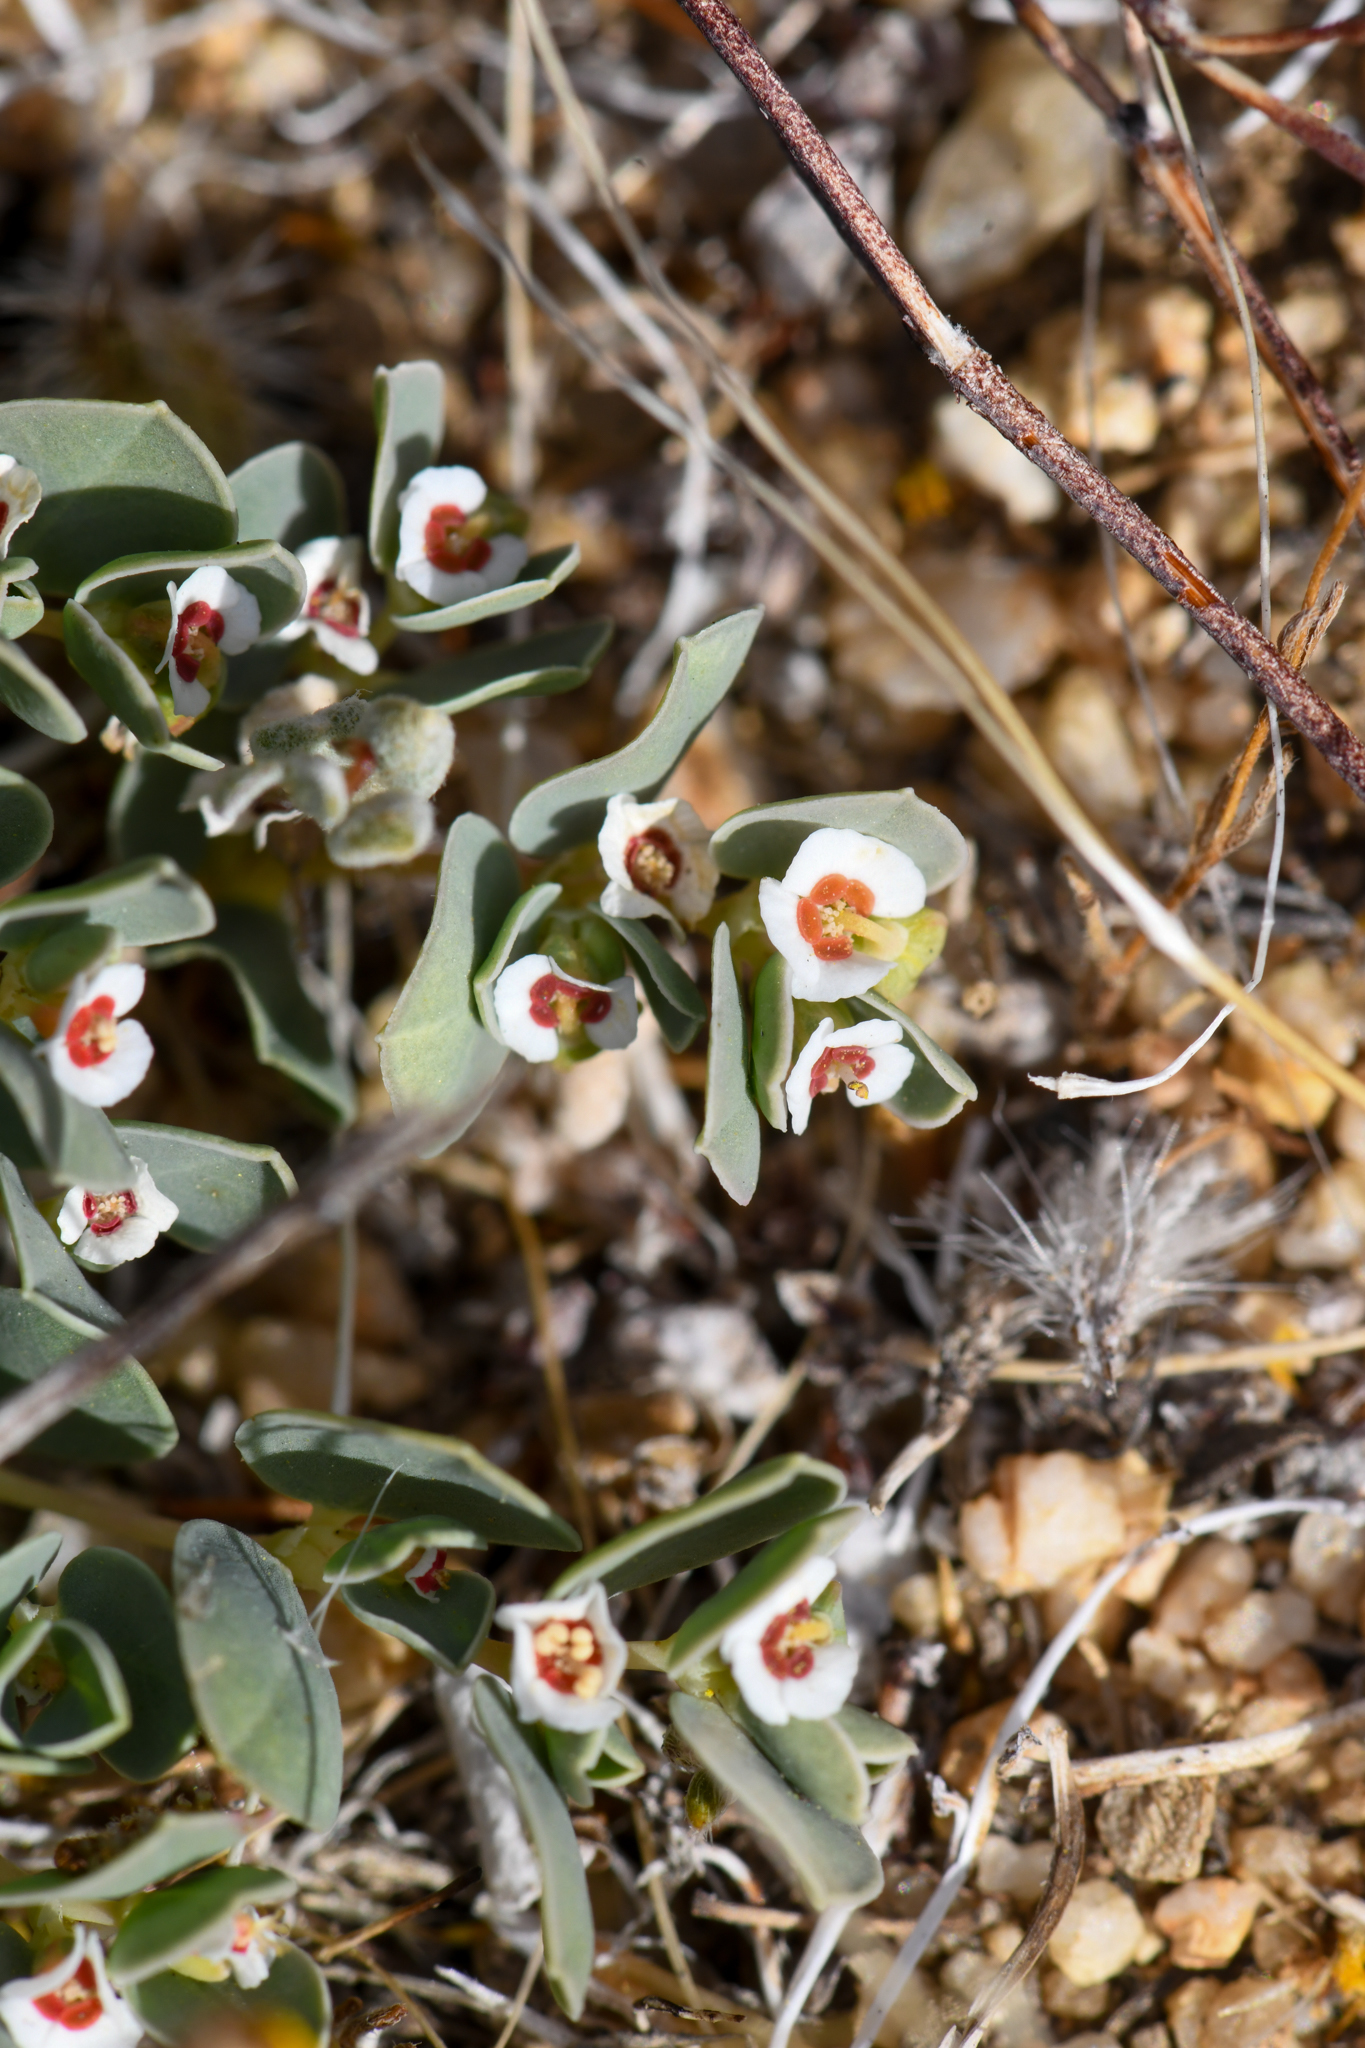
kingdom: Plantae
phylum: Tracheophyta
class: Magnoliopsida
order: Malpighiales
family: Euphorbiaceae
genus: Euphorbia
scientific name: Euphorbia albomarginata
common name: Whitemargin sandmat
